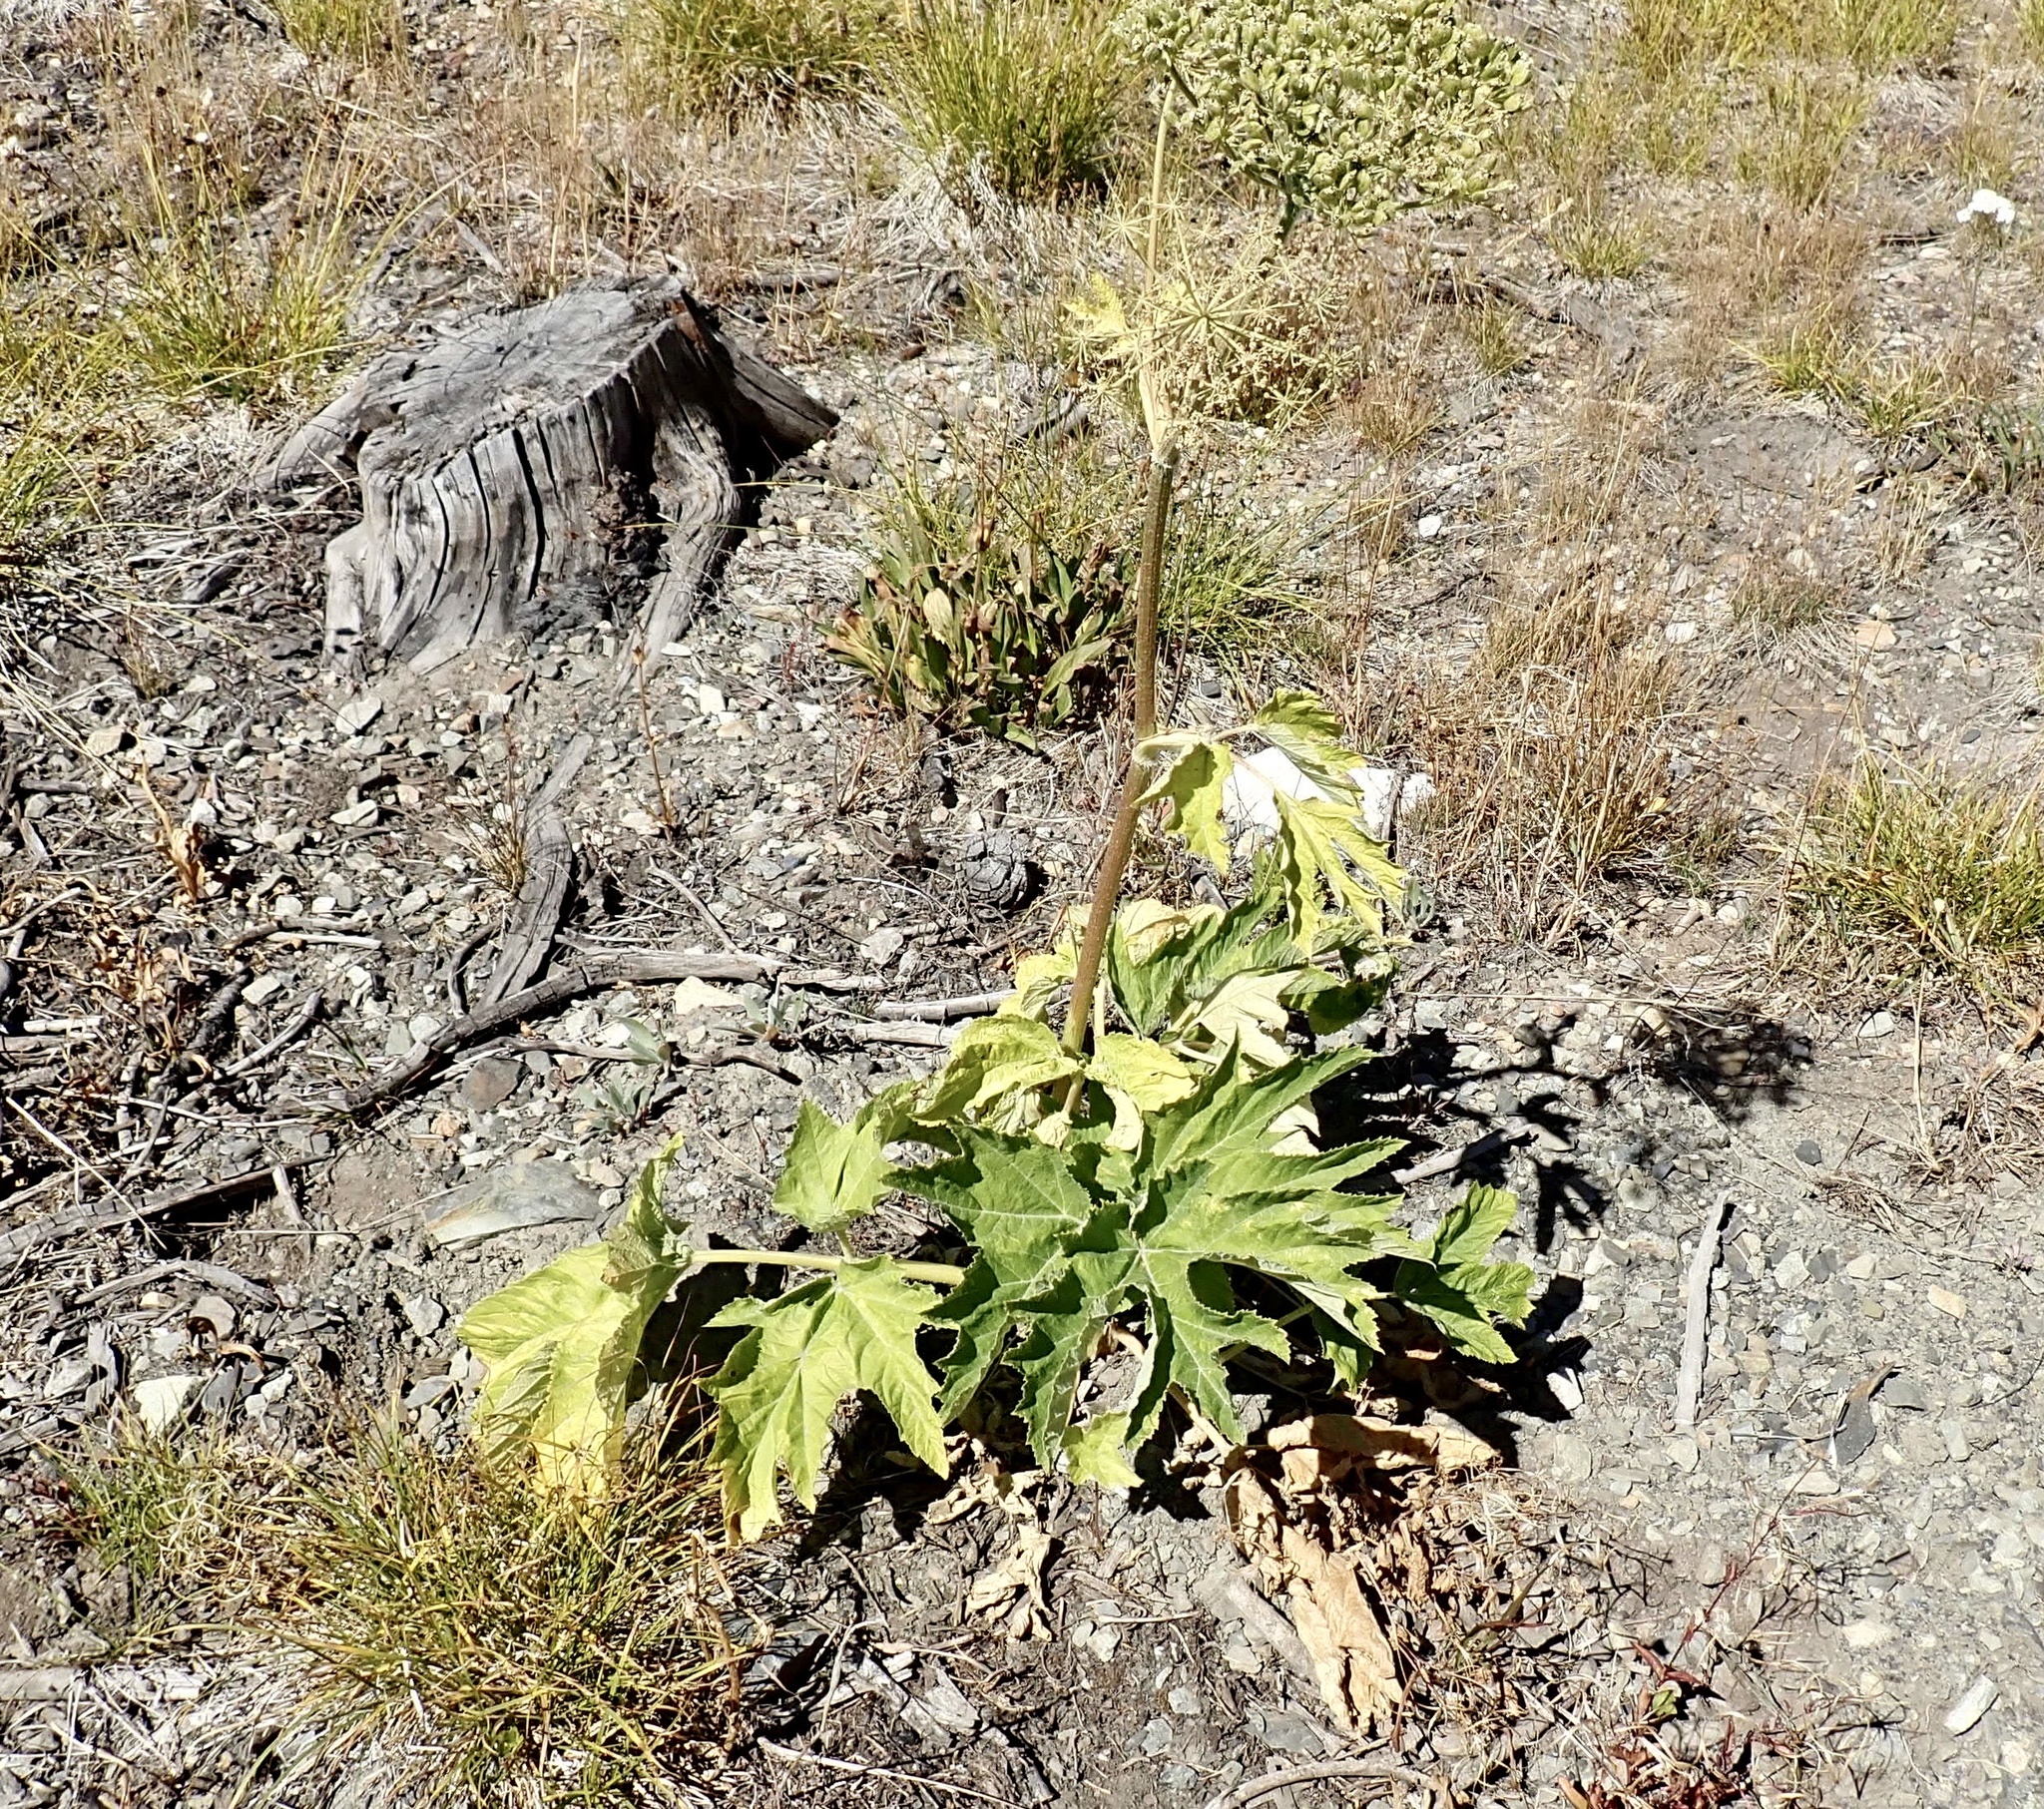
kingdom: Plantae
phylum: Tracheophyta
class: Magnoliopsida
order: Apiales
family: Apiaceae
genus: Heracleum
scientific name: Heracleum maximum
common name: American cow parsnip
